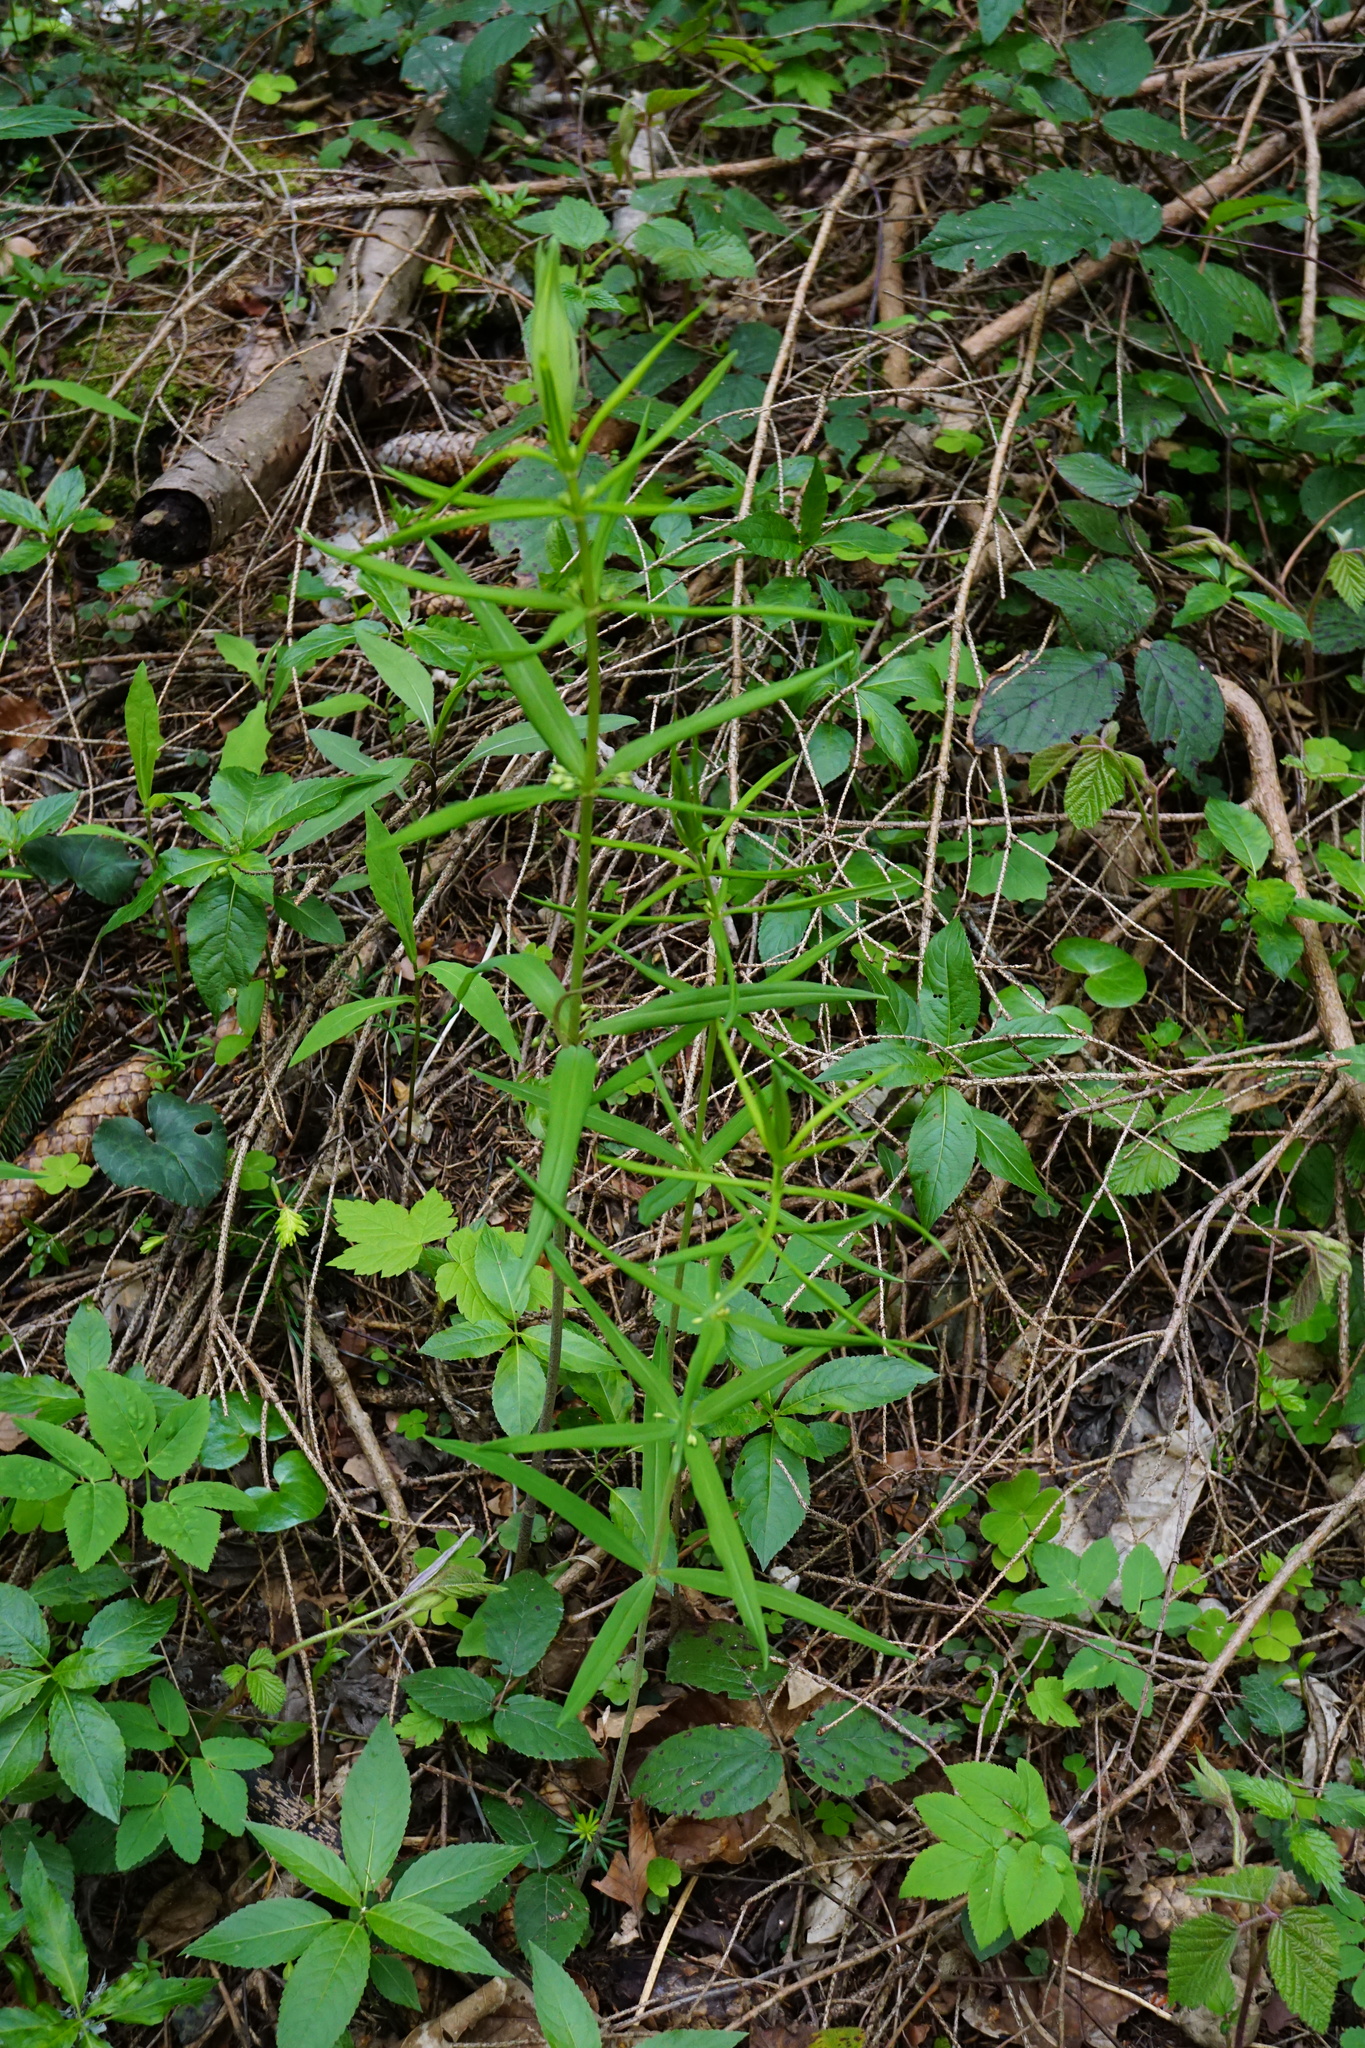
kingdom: Plantae
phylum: Tracheophyta
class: Liliopsida
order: Asparagales
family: Asparagaceae
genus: Polygonatum
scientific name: Polygonatum verticillatum
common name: Whorled solomon's-seal
